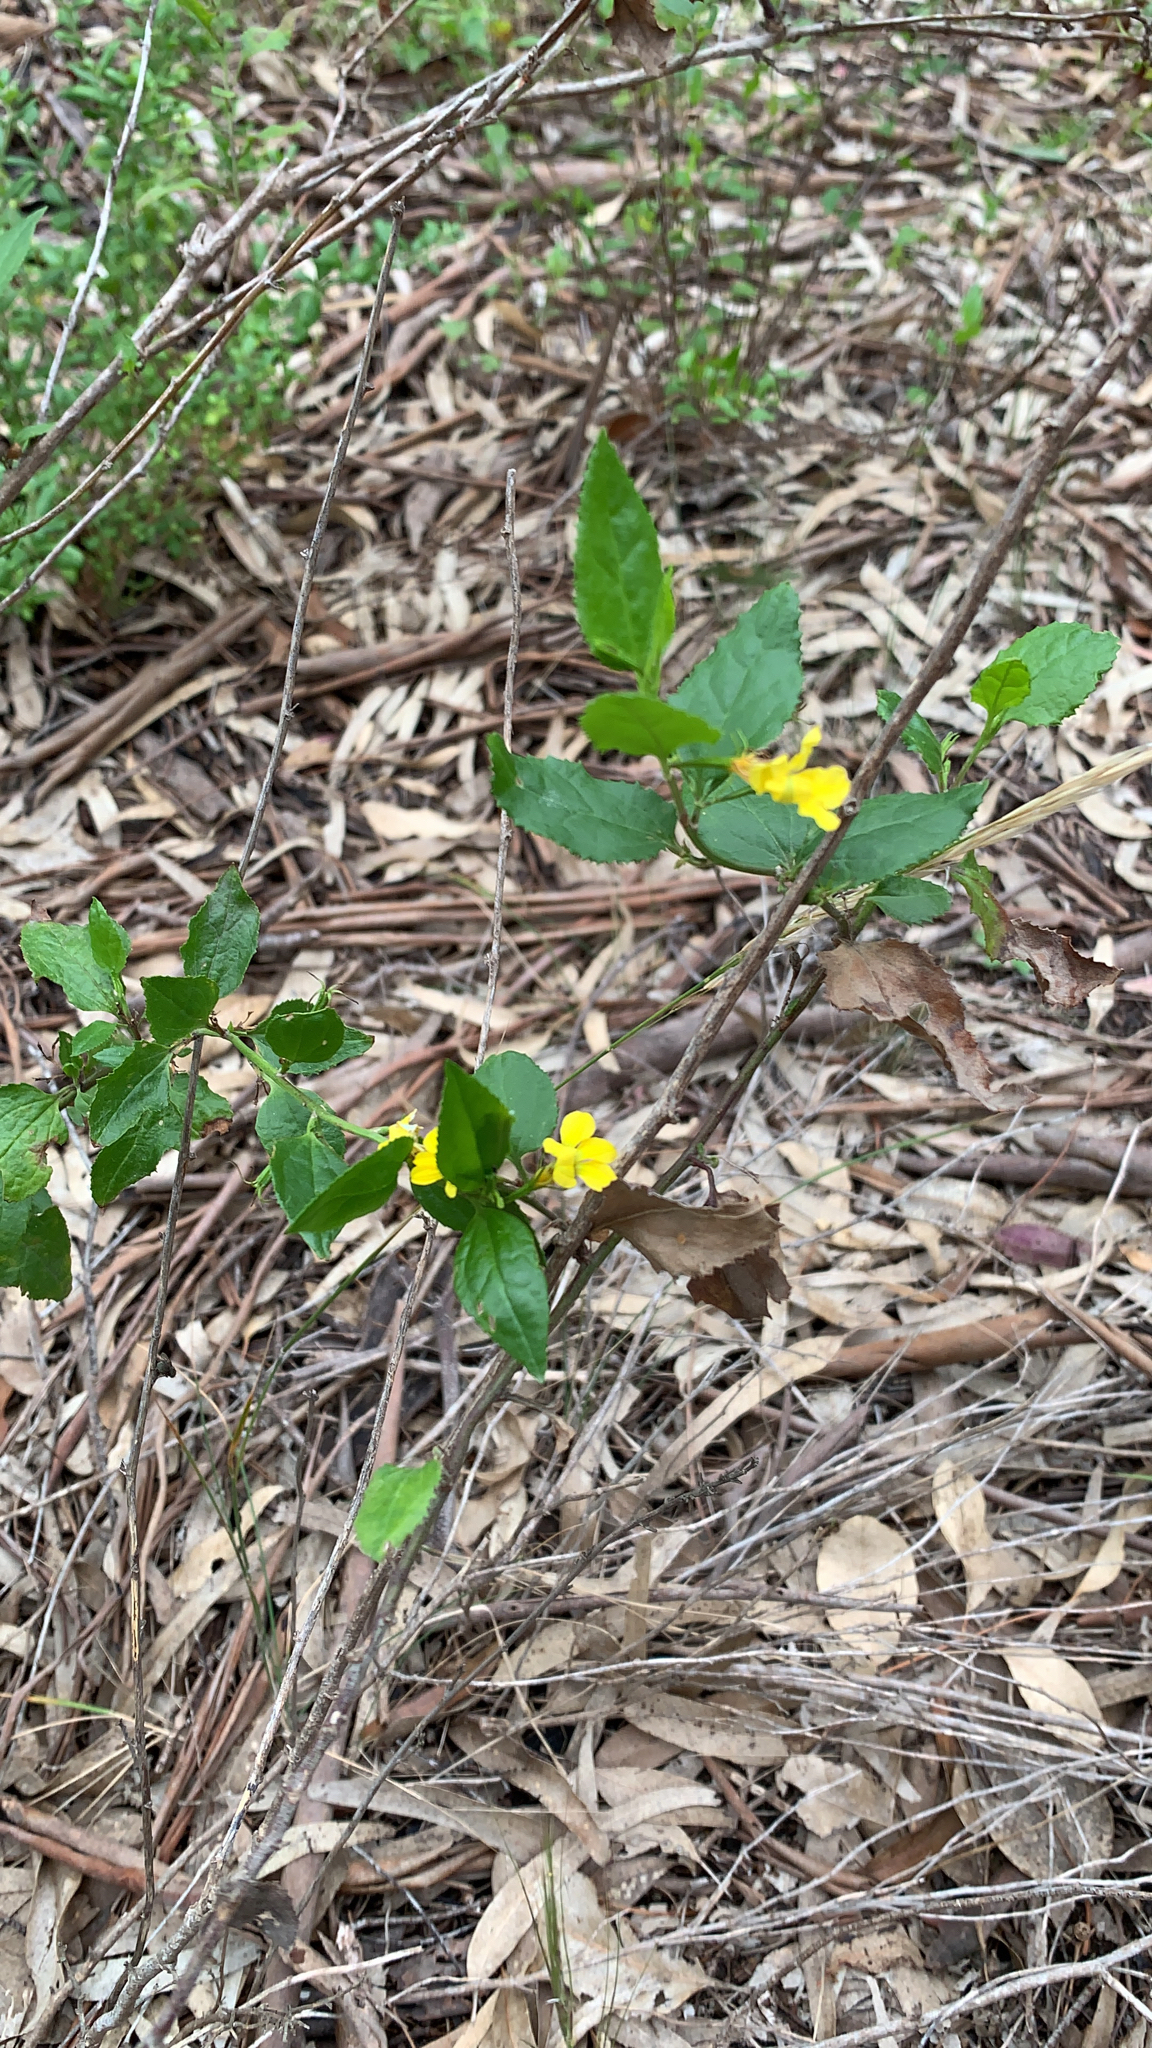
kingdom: Plantae
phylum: Tracheophyta
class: Magnoliopsida
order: Asterales
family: Goodeniaceae
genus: Goodenia
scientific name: Goodenia ovata
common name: Hop goodenia
